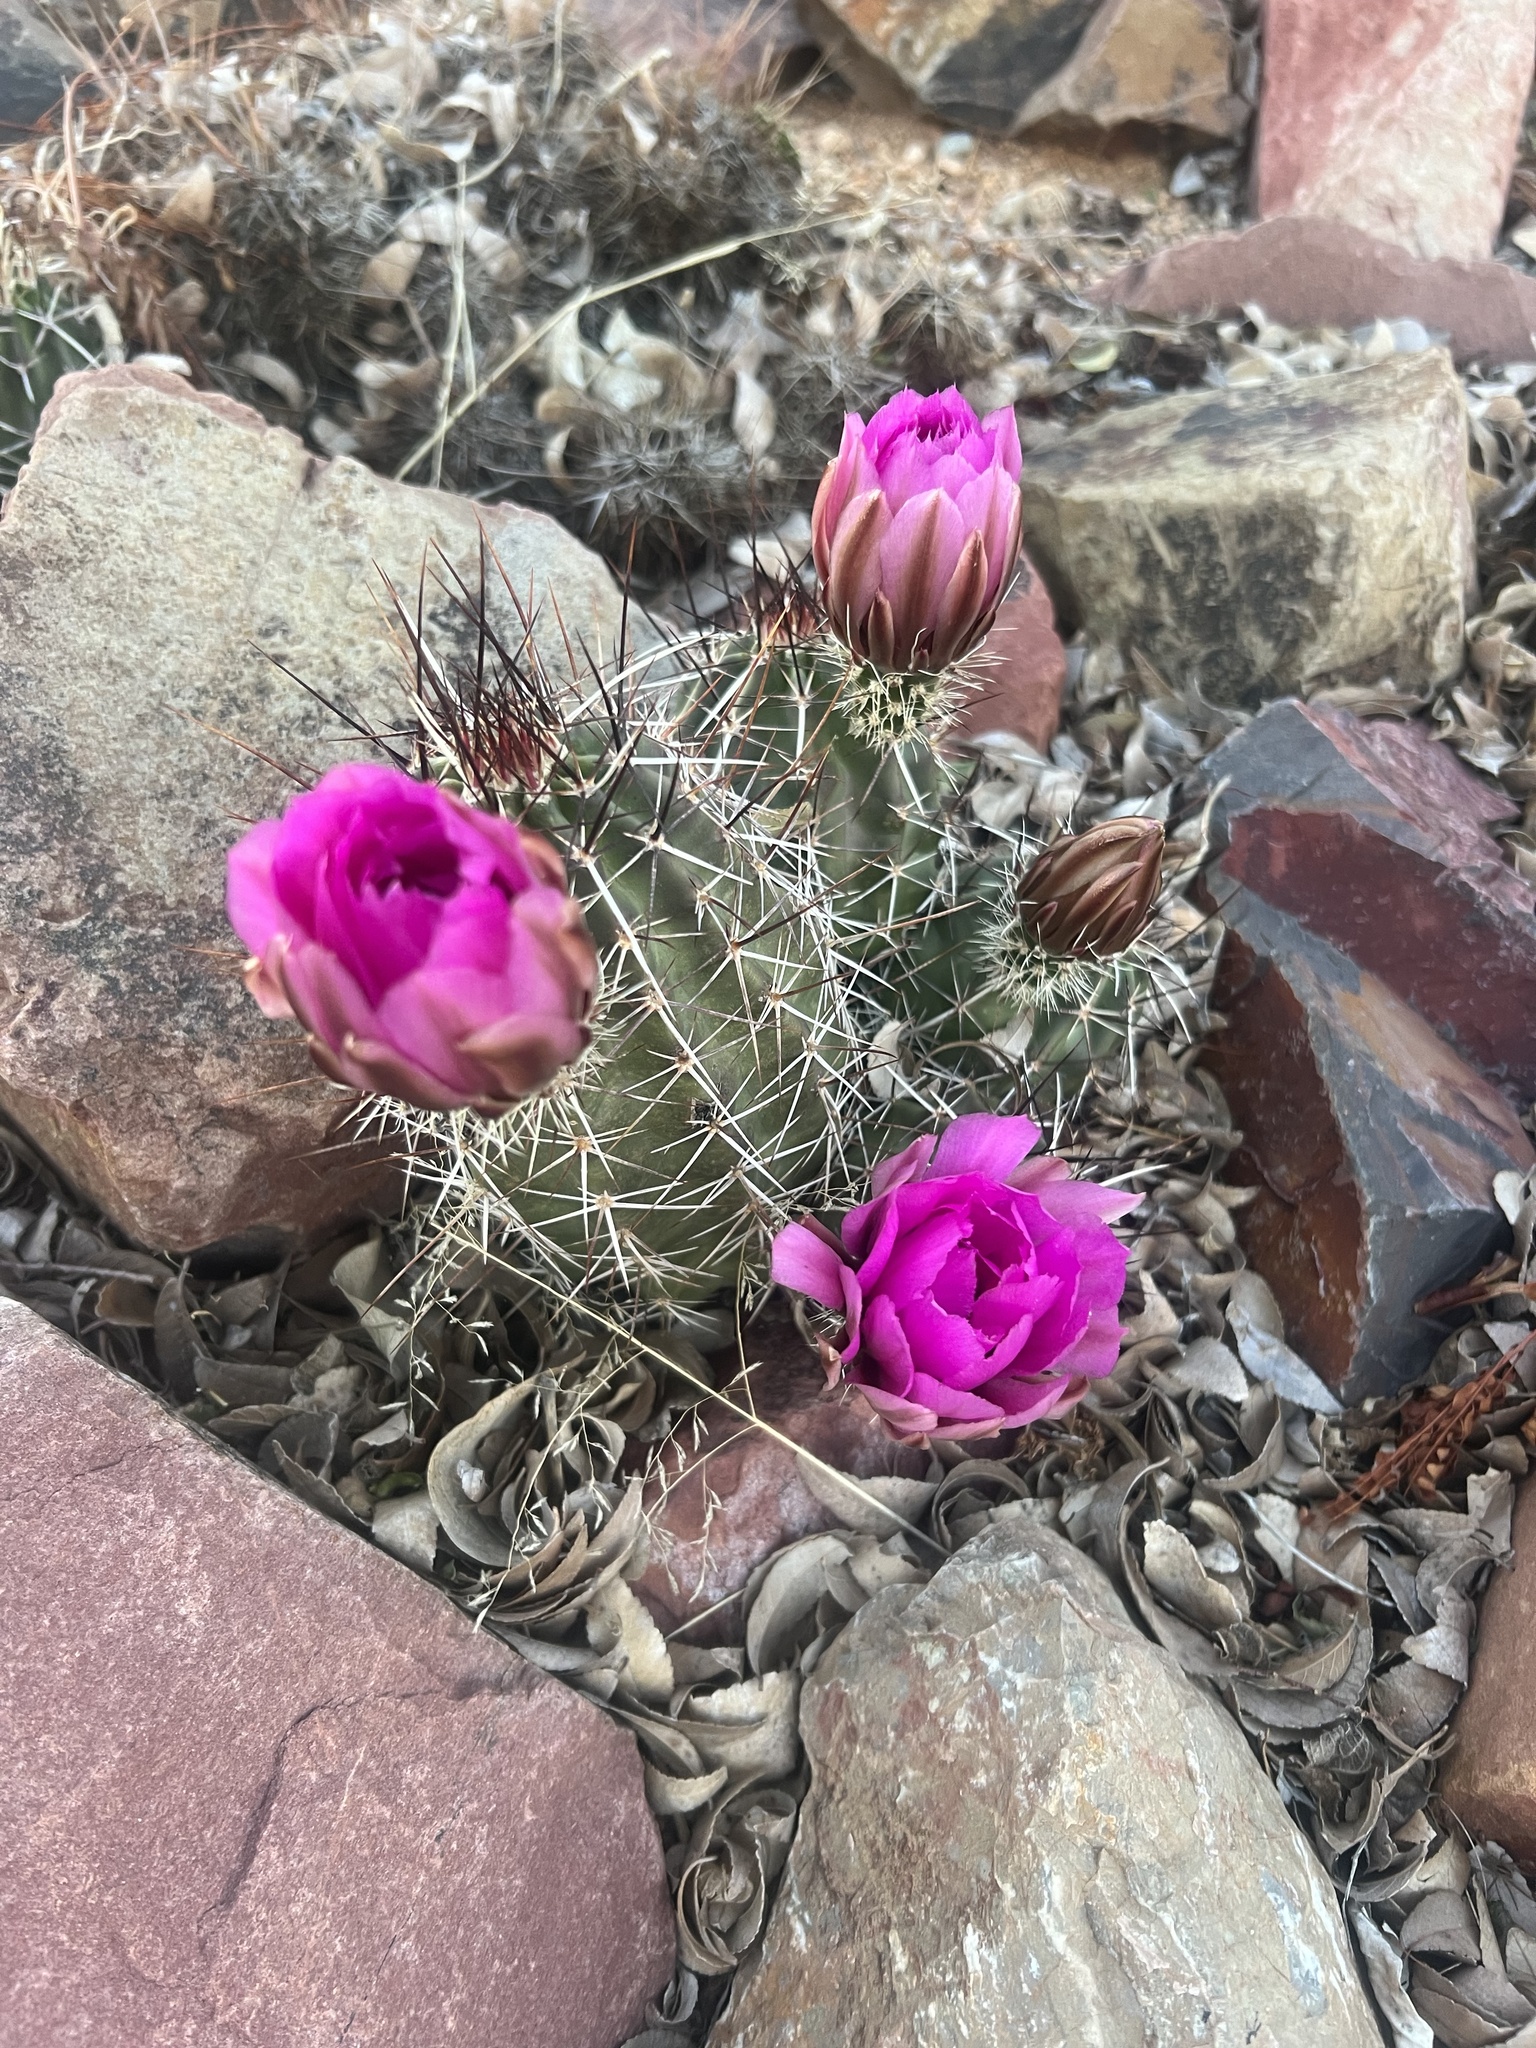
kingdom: Plantae
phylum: Tracheophyta
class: Magnoliopsida
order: Caryophyllales
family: Cactaceae
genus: Echinocereus
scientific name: Echinocereus fasciculatus
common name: Bundle hedgehog
